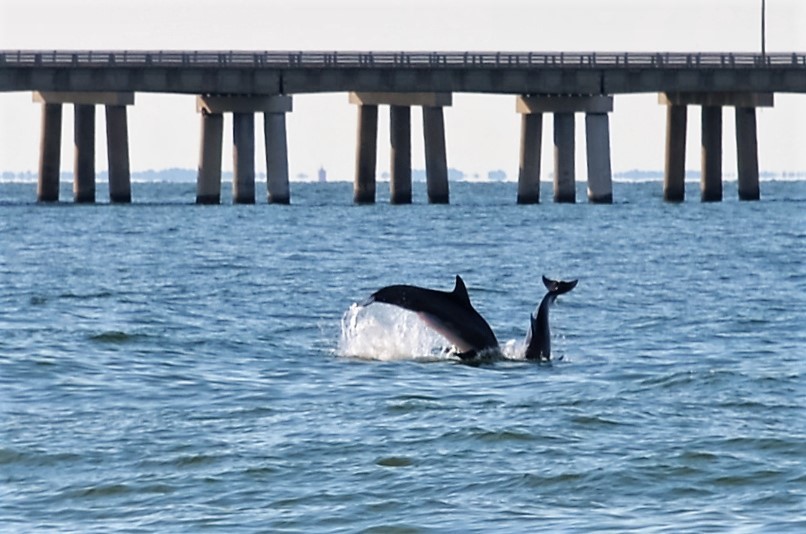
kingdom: Animalia
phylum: Chordata
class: Mammalia
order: Cetacea
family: Delphinidae
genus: Tursiops
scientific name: Tursiops truncatus
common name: Bottlenose dolphin
